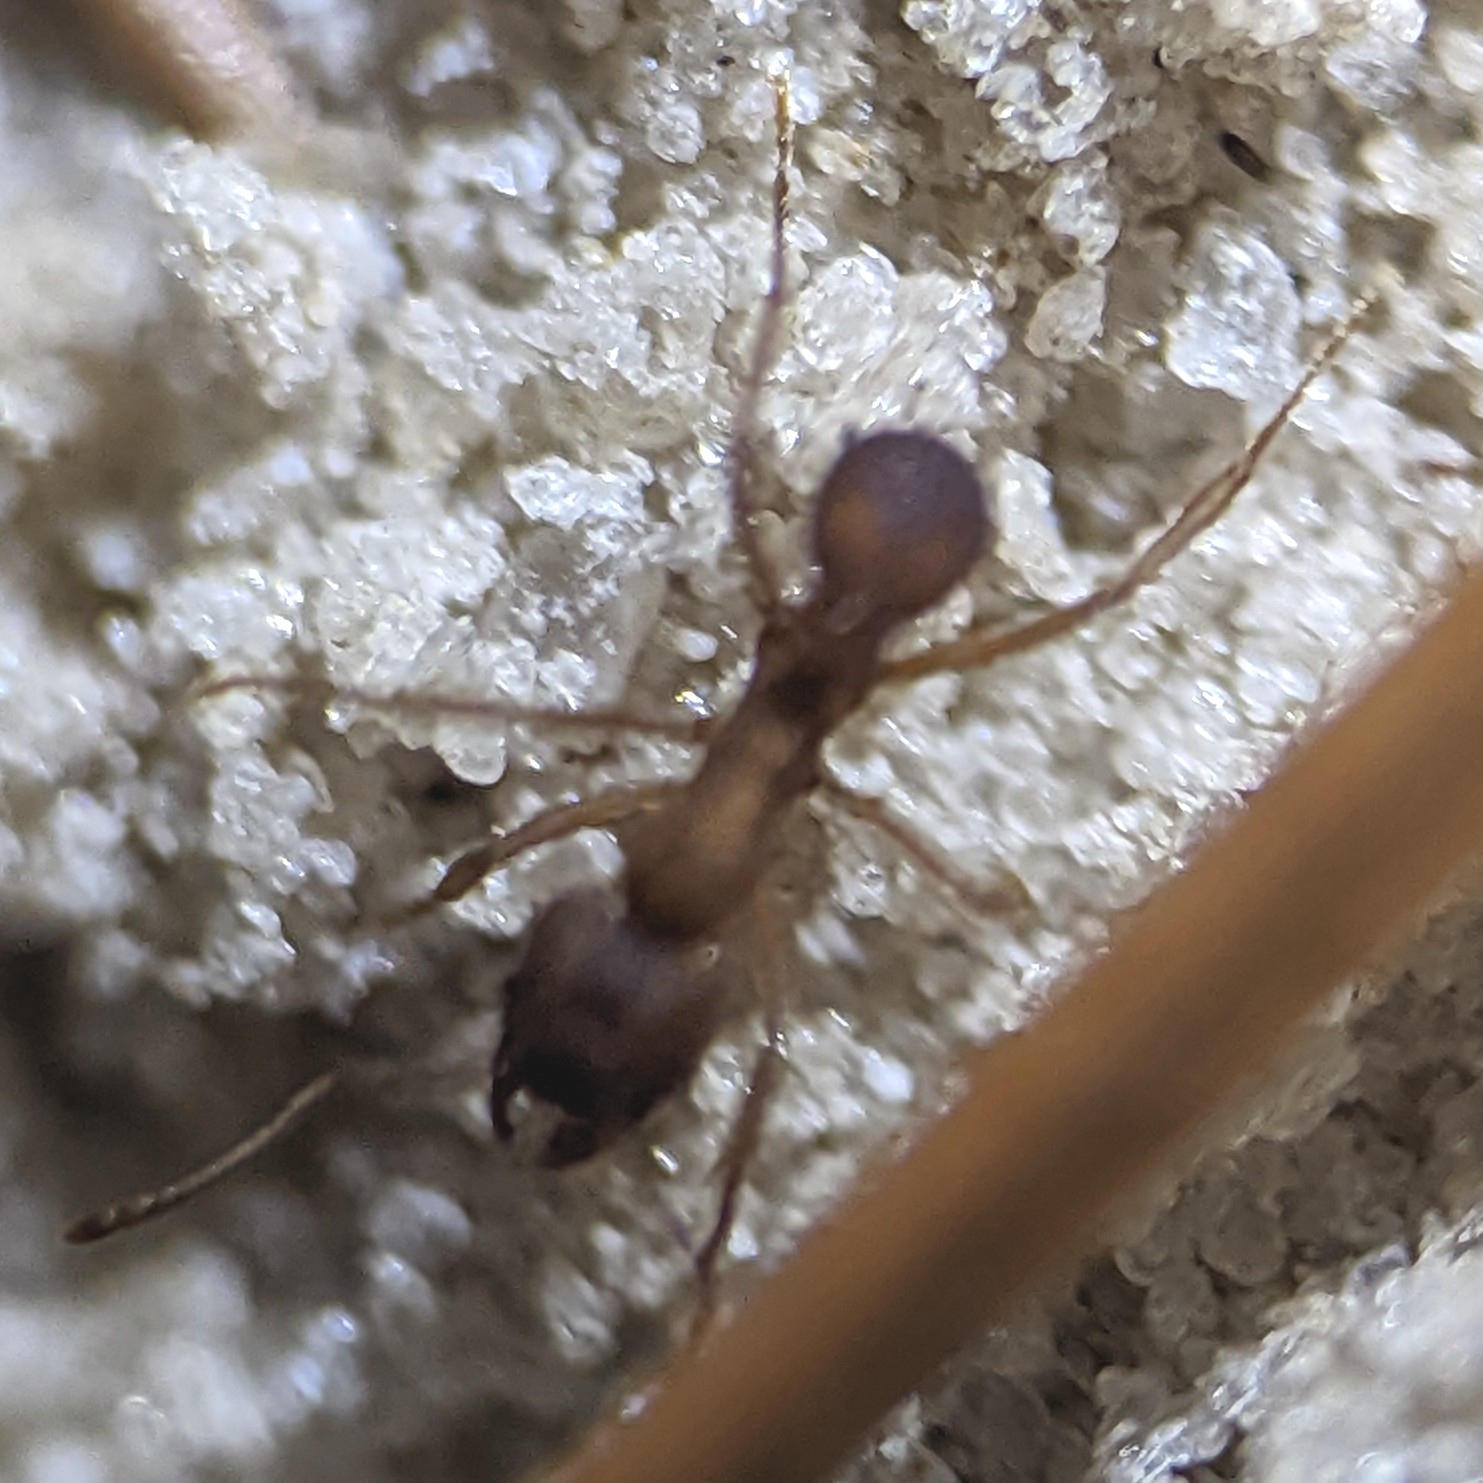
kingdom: Animalia
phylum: Arthropoda
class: Insecta
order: Hymenoptera
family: Formicidae
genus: Trachymyrmex
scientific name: Trachymyrmex septentrionalis
